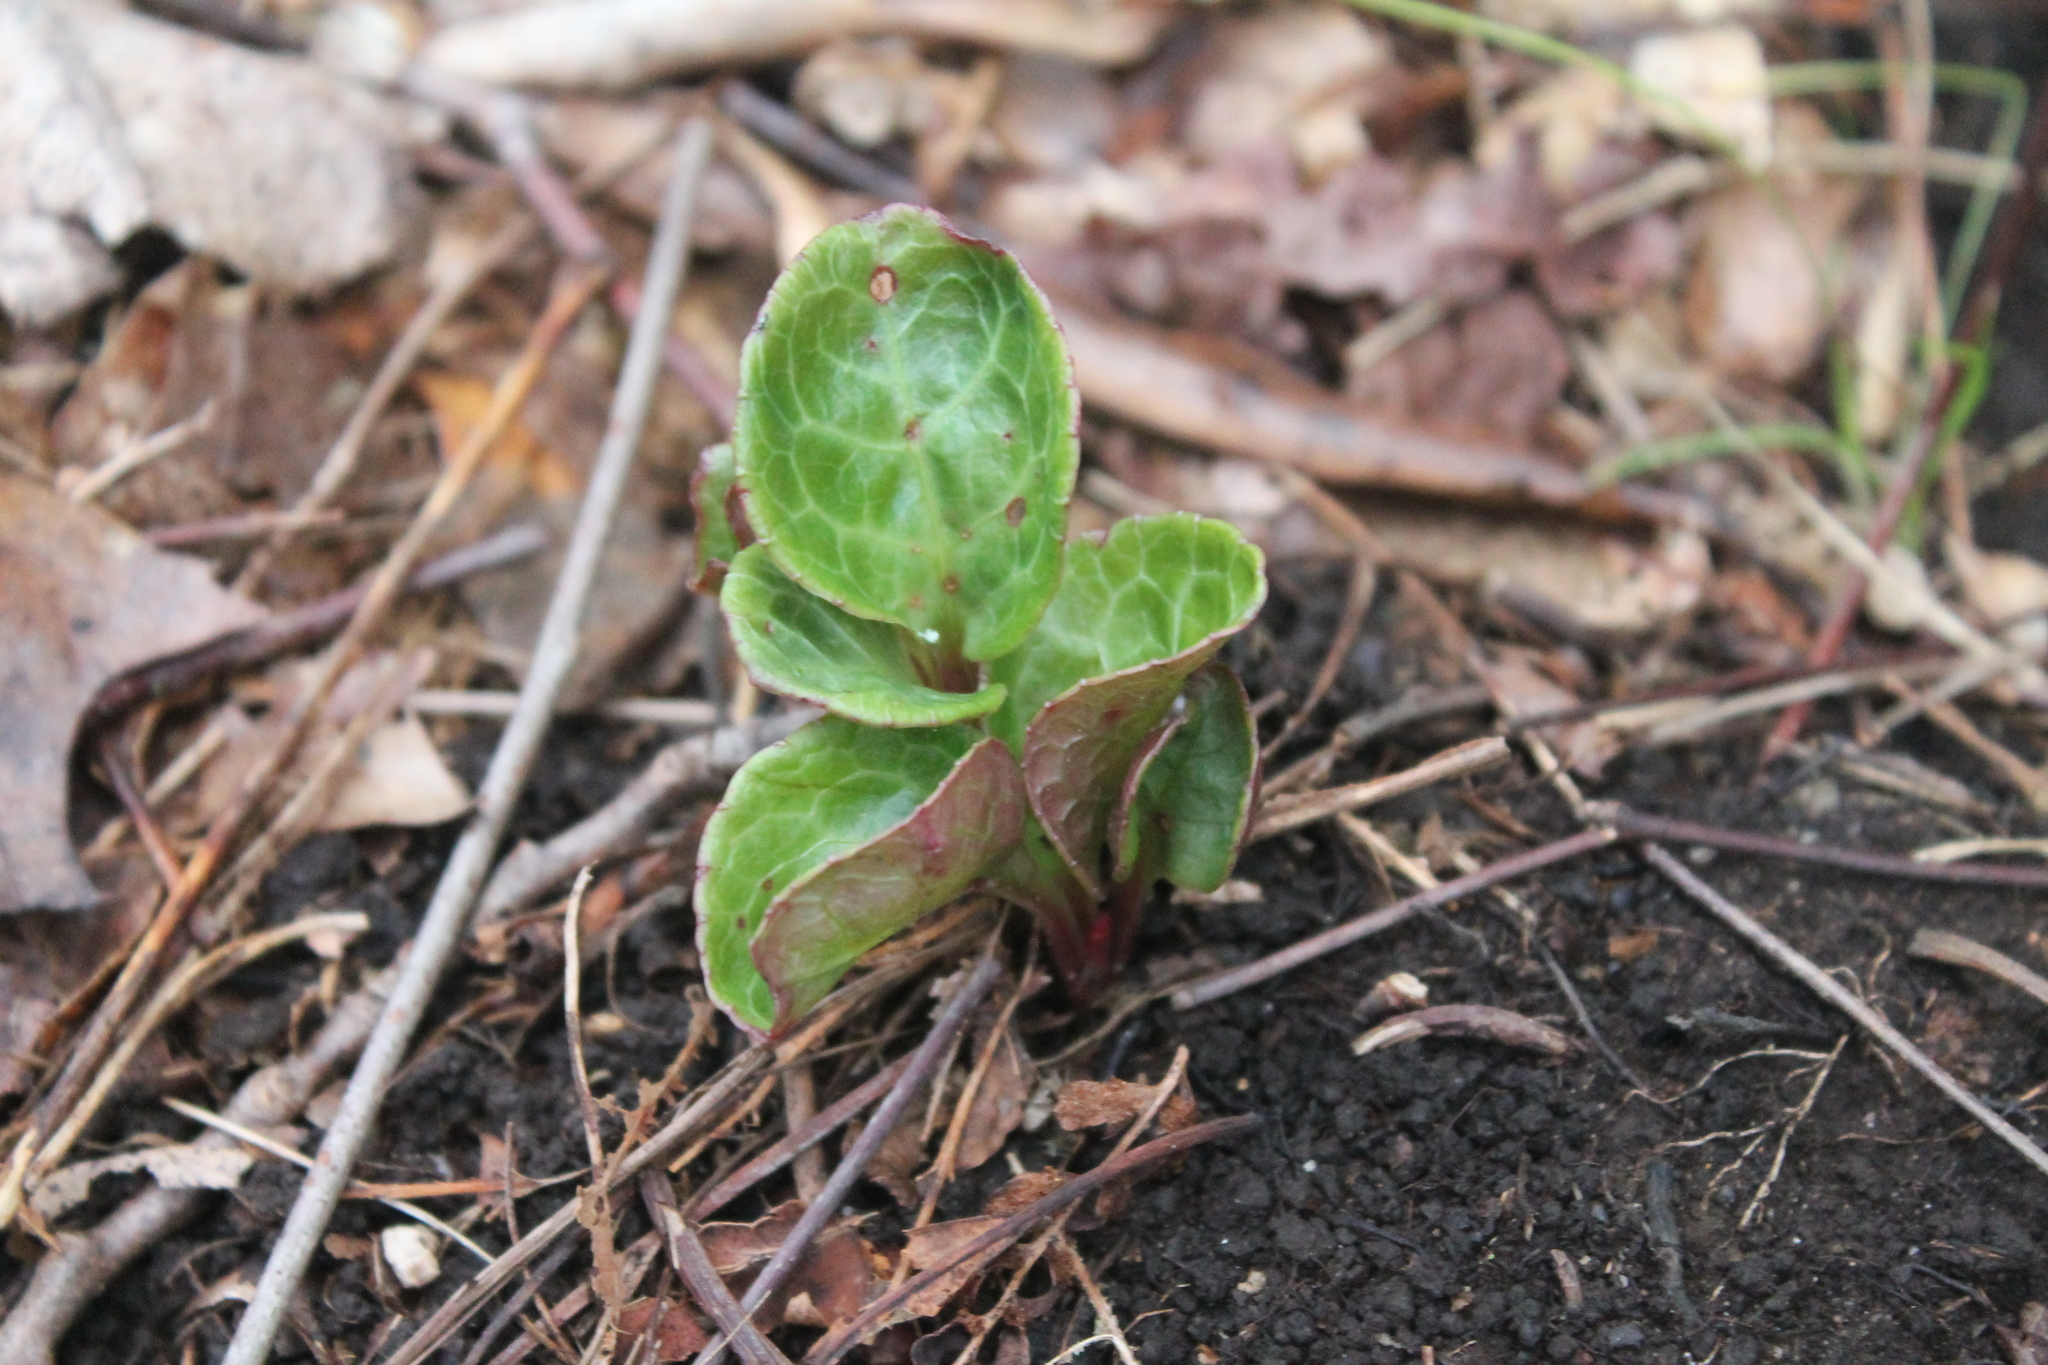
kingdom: Plantae
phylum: Tracheophyta
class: Magnoliopsida
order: Ericales
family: Ericaceae
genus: Pyrola
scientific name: Pyrola americana
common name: American wintergreen
